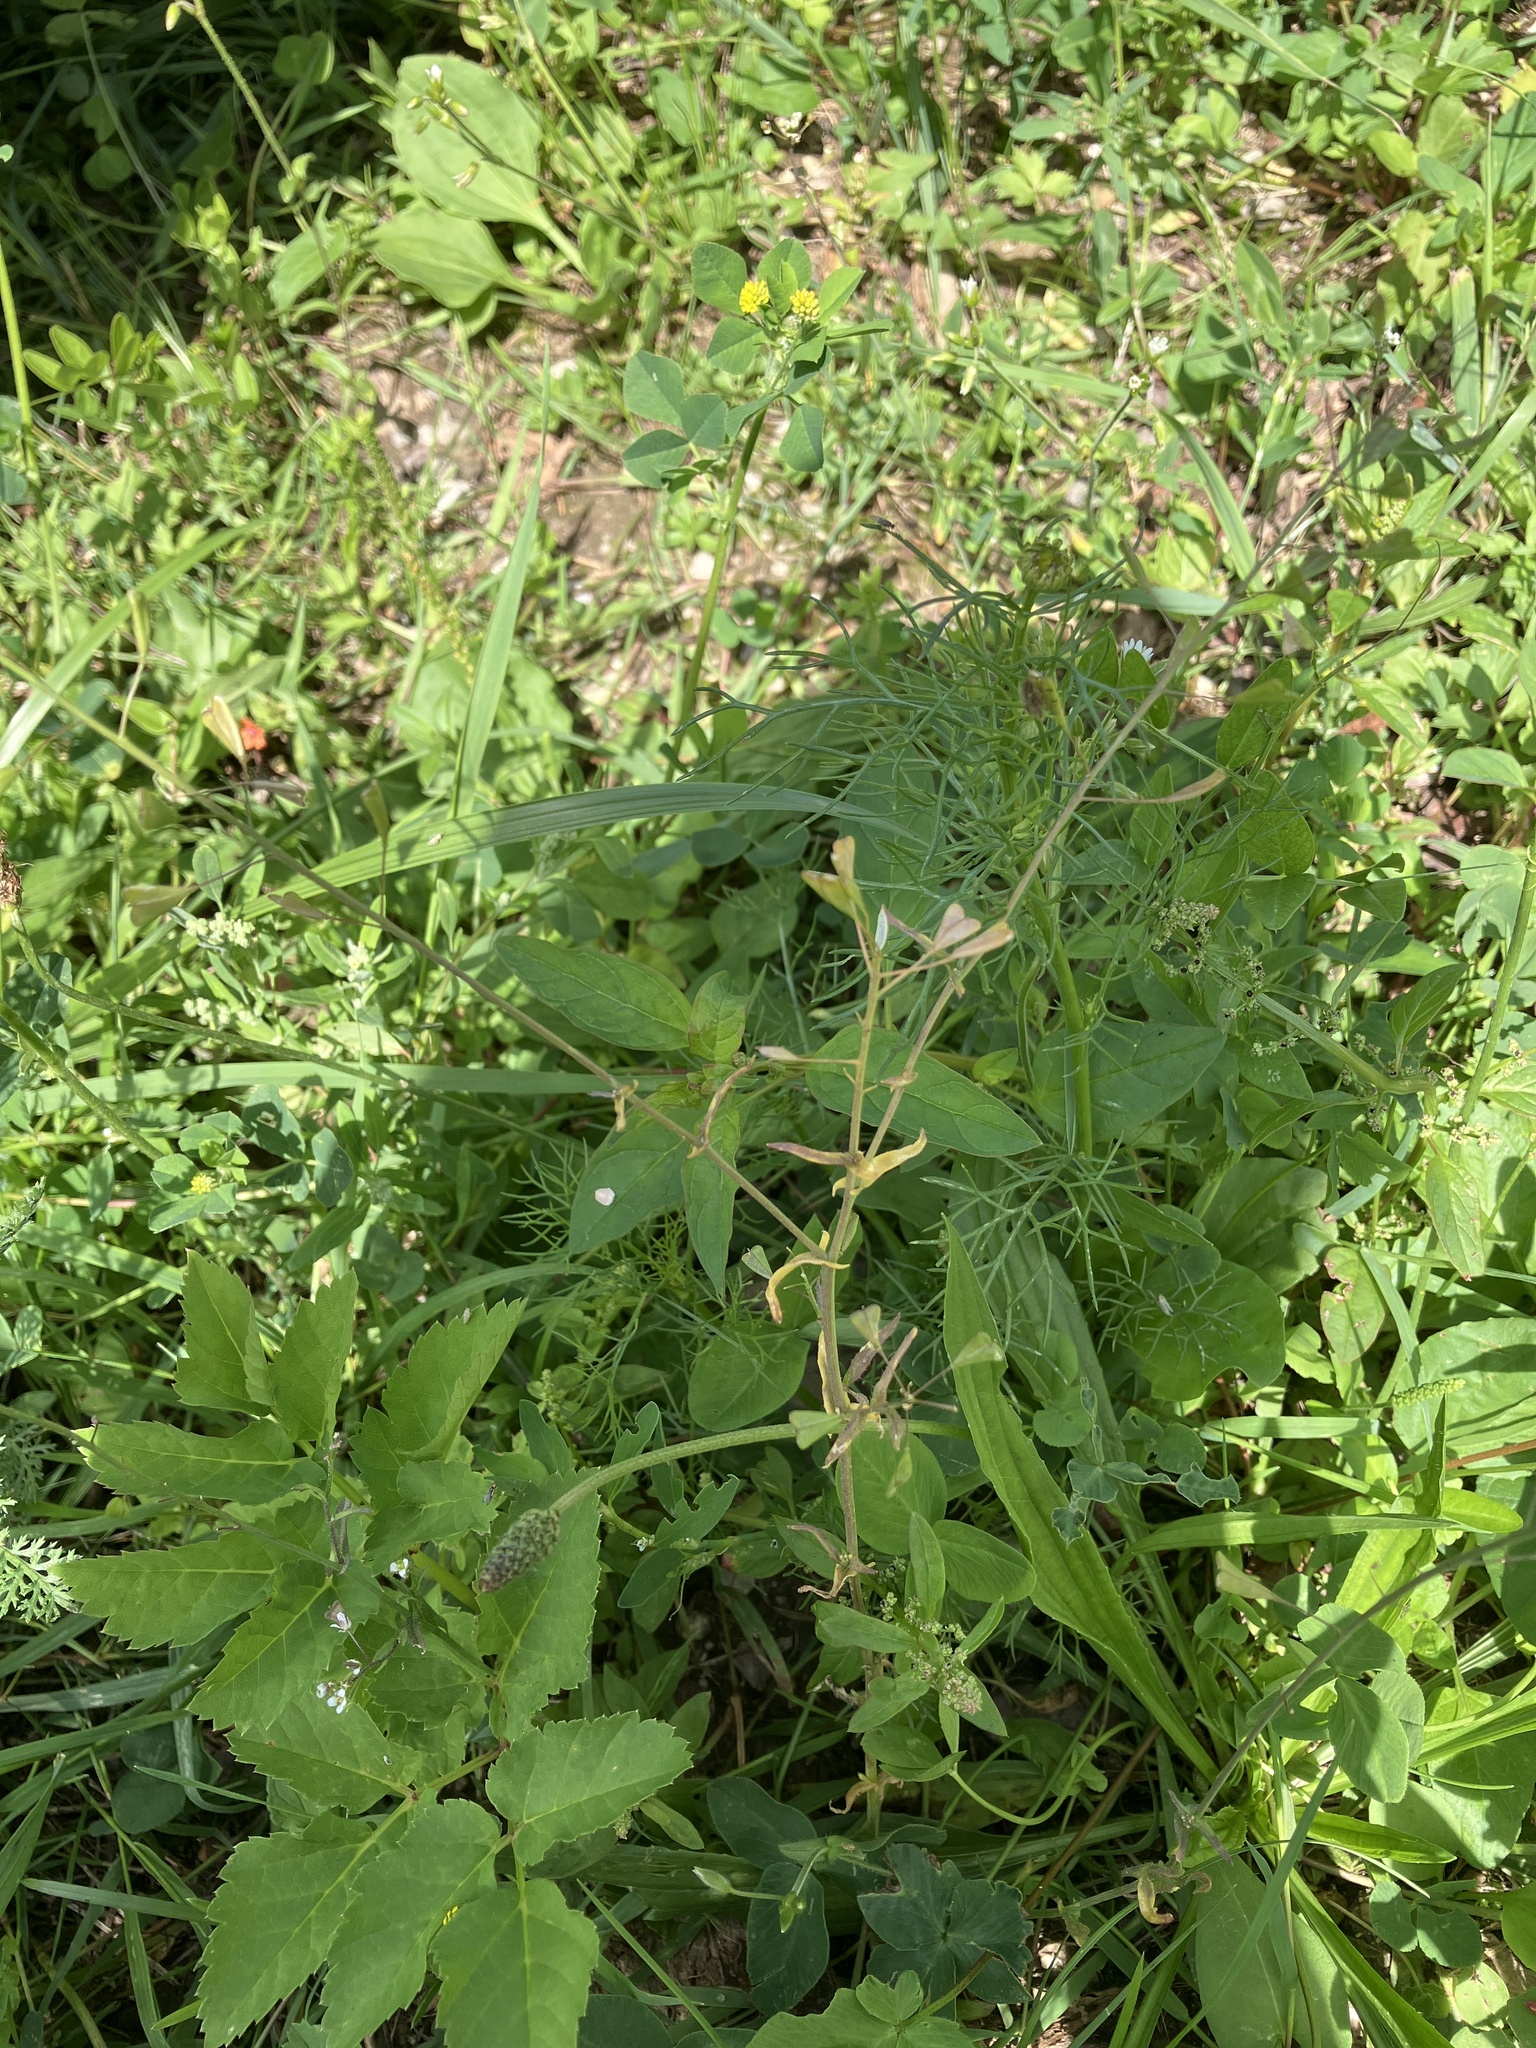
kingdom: Plantae
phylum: Tracheophyta
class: Magnoliopsida
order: Brassicales
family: Brassicaceae
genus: Capsella
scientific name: Capsella bursa-pastoris
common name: Shepherd's purse
